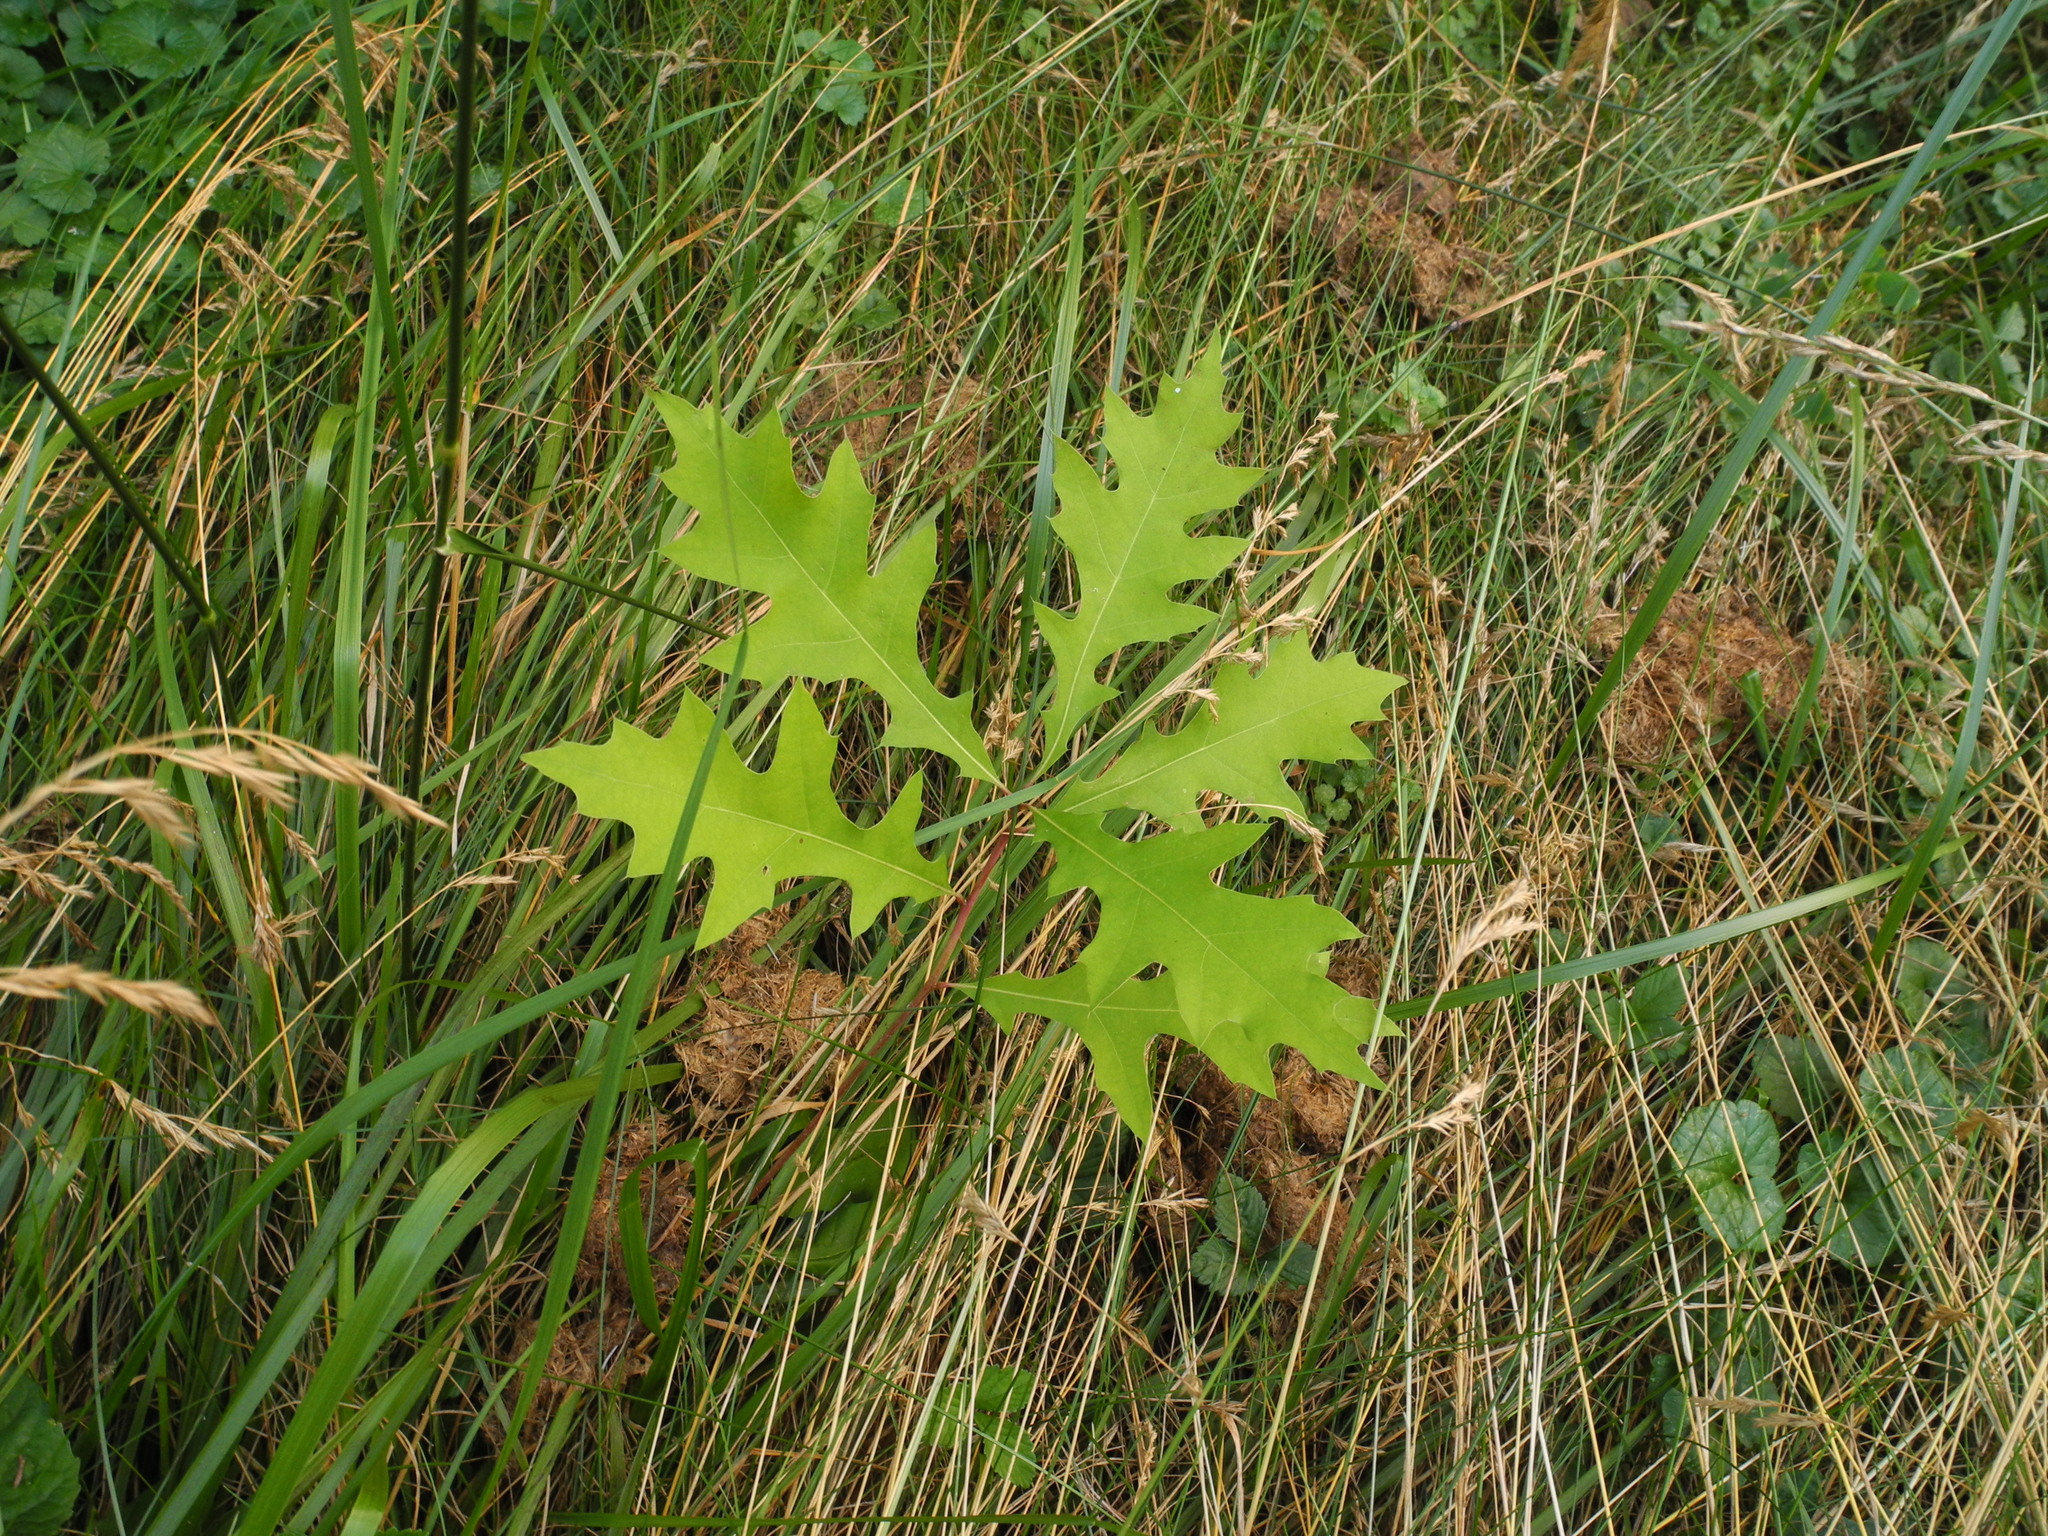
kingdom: Plantae
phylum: Tracheophyta
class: Magnoliopsida
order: Fagales
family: Fagaceae
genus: Quercus
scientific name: Quercus coccinea
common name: Scarlet oak
